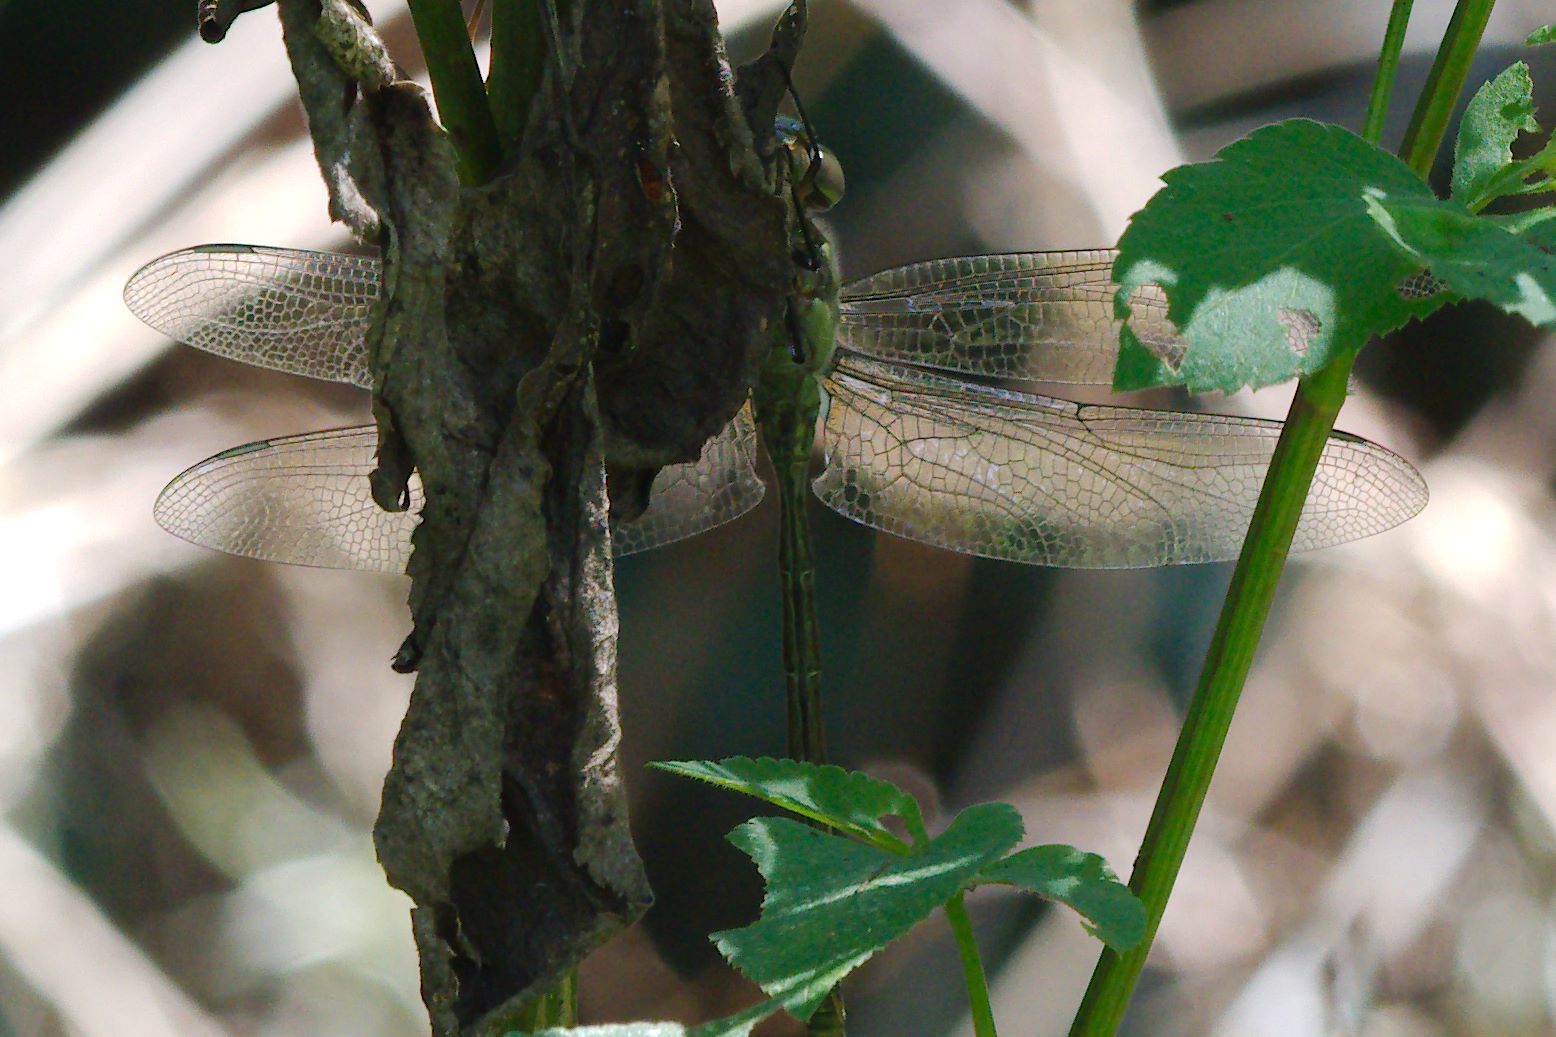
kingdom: Animalia
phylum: Arthropoda
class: Insecta
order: Odonata
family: Aeshnidae
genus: Coryphaeschna
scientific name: Coryphaeschna adnexa
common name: Blue-faced darner
